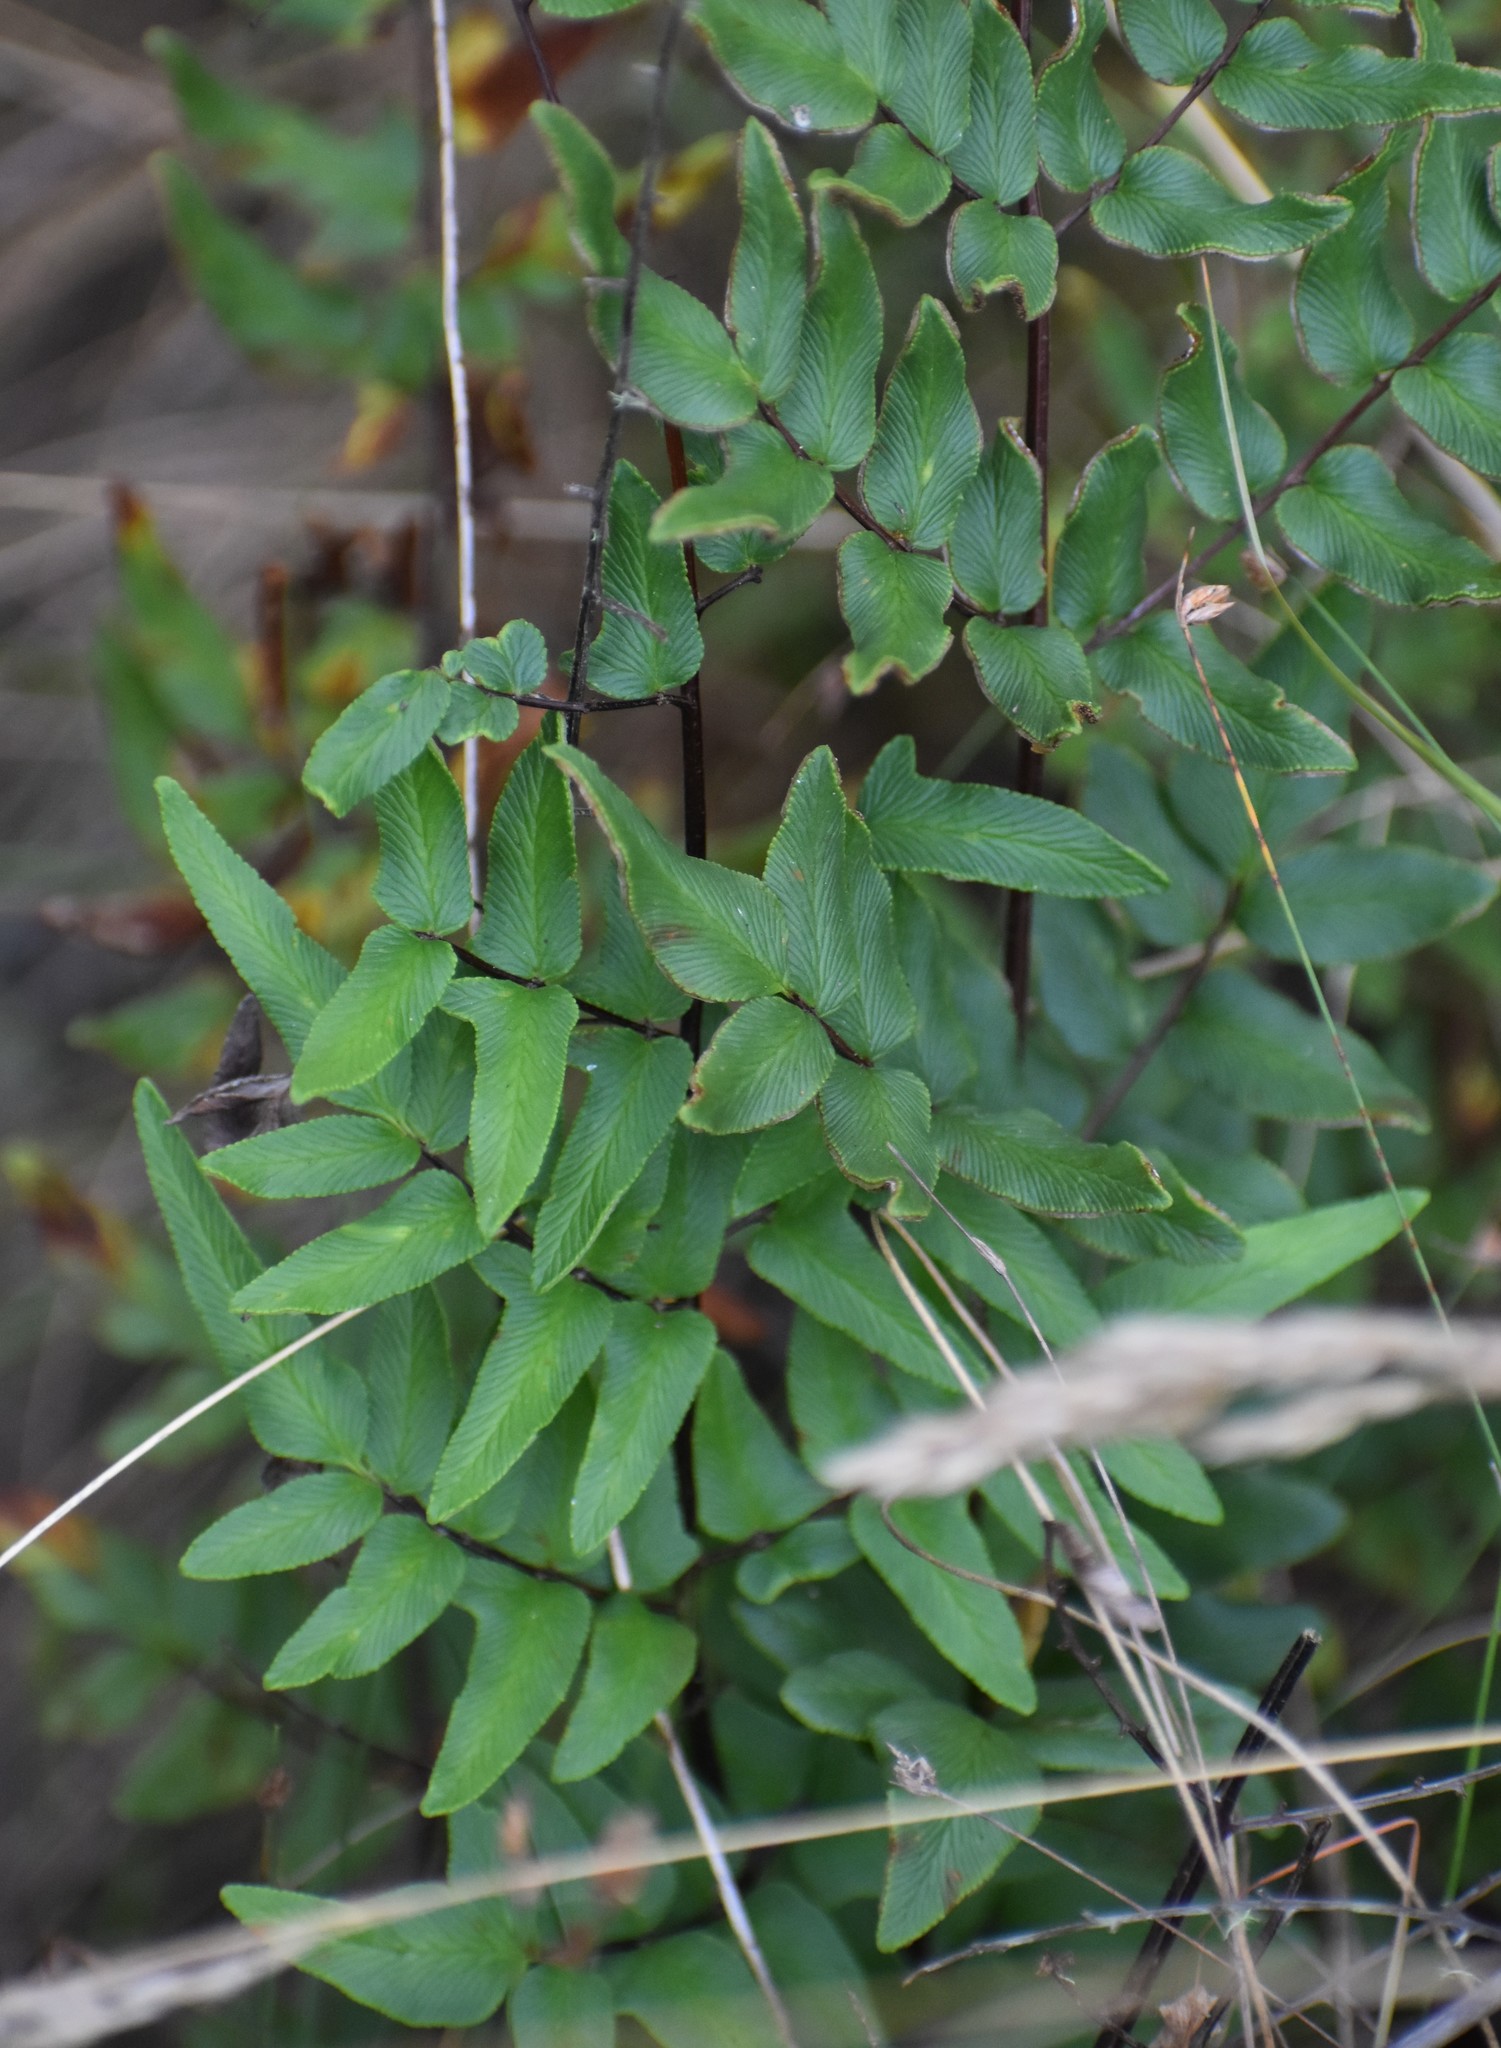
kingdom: Plantae
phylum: Tracheophyta
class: Polypodiopsida
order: Polypodiales
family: Pteridaceae
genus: Cheilanthes
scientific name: Cheilanthes viridis
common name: Green cliffbrake
